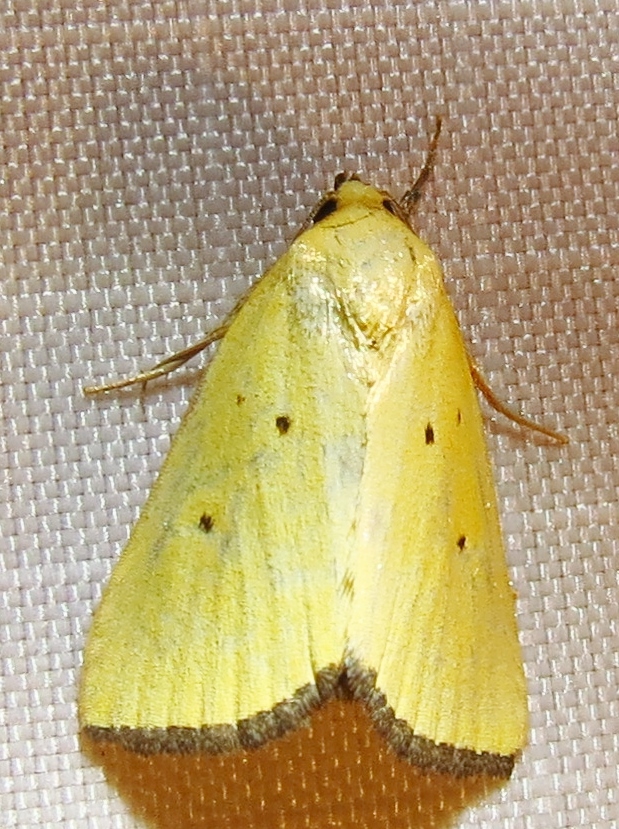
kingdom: Animalia
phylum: Arthropoda
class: Insecta
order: Lepidoptera
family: Noctuidae
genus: Marimatha
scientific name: Marimatha nigrofimbria
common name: Black-bordered lemon moth
